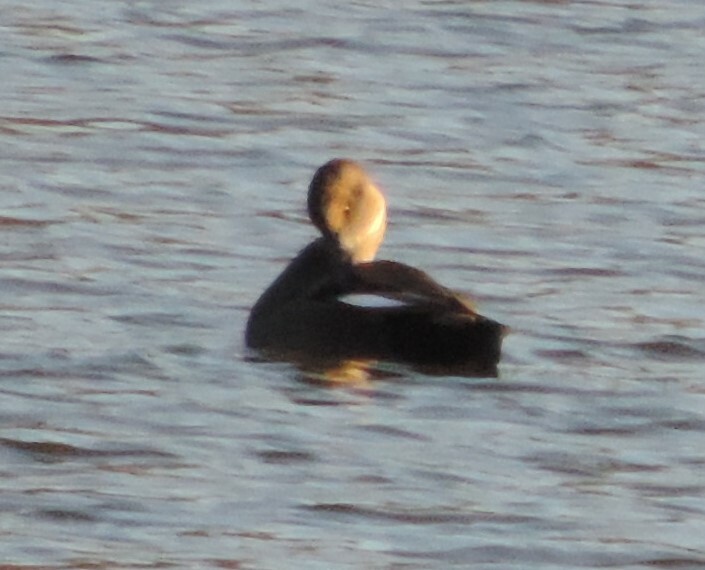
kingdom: Animalia
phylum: Chordata
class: Aves
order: Anseriformes
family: Anatidae
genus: Mareca
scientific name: Mareca strepera
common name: Gadwall
